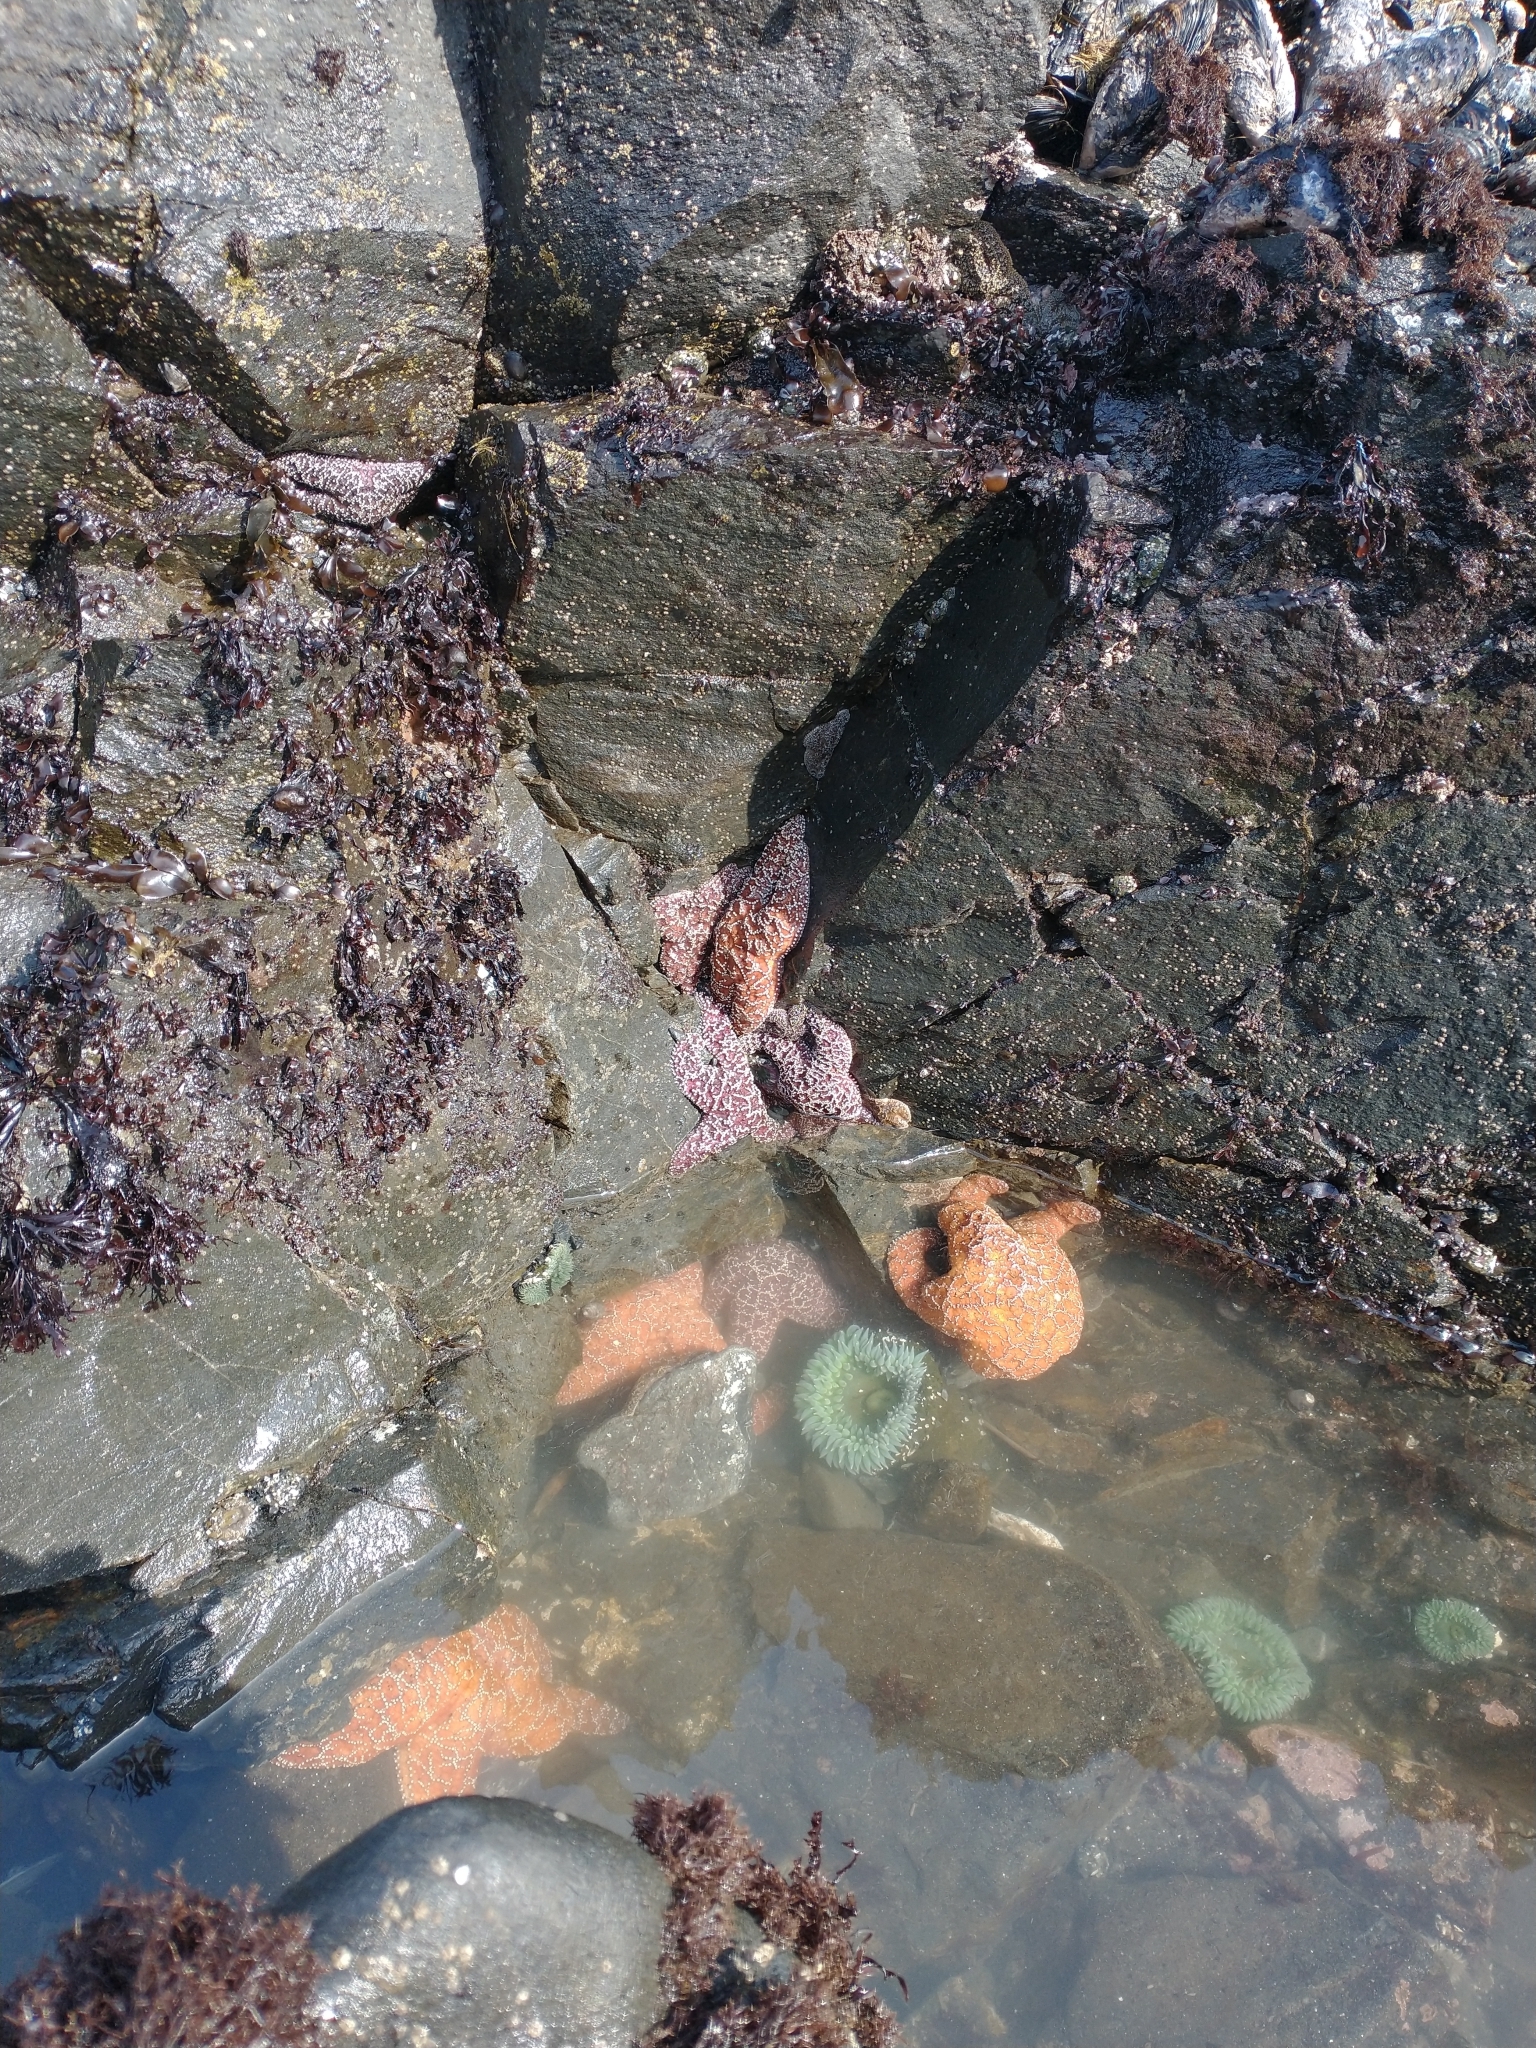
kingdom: Animalia
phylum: Cnidaria
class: Anthozoa
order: Actiniaria
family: Actiniidae
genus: Anthopleura
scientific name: Anthopleura xanthogrammica
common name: Giant green anemone
